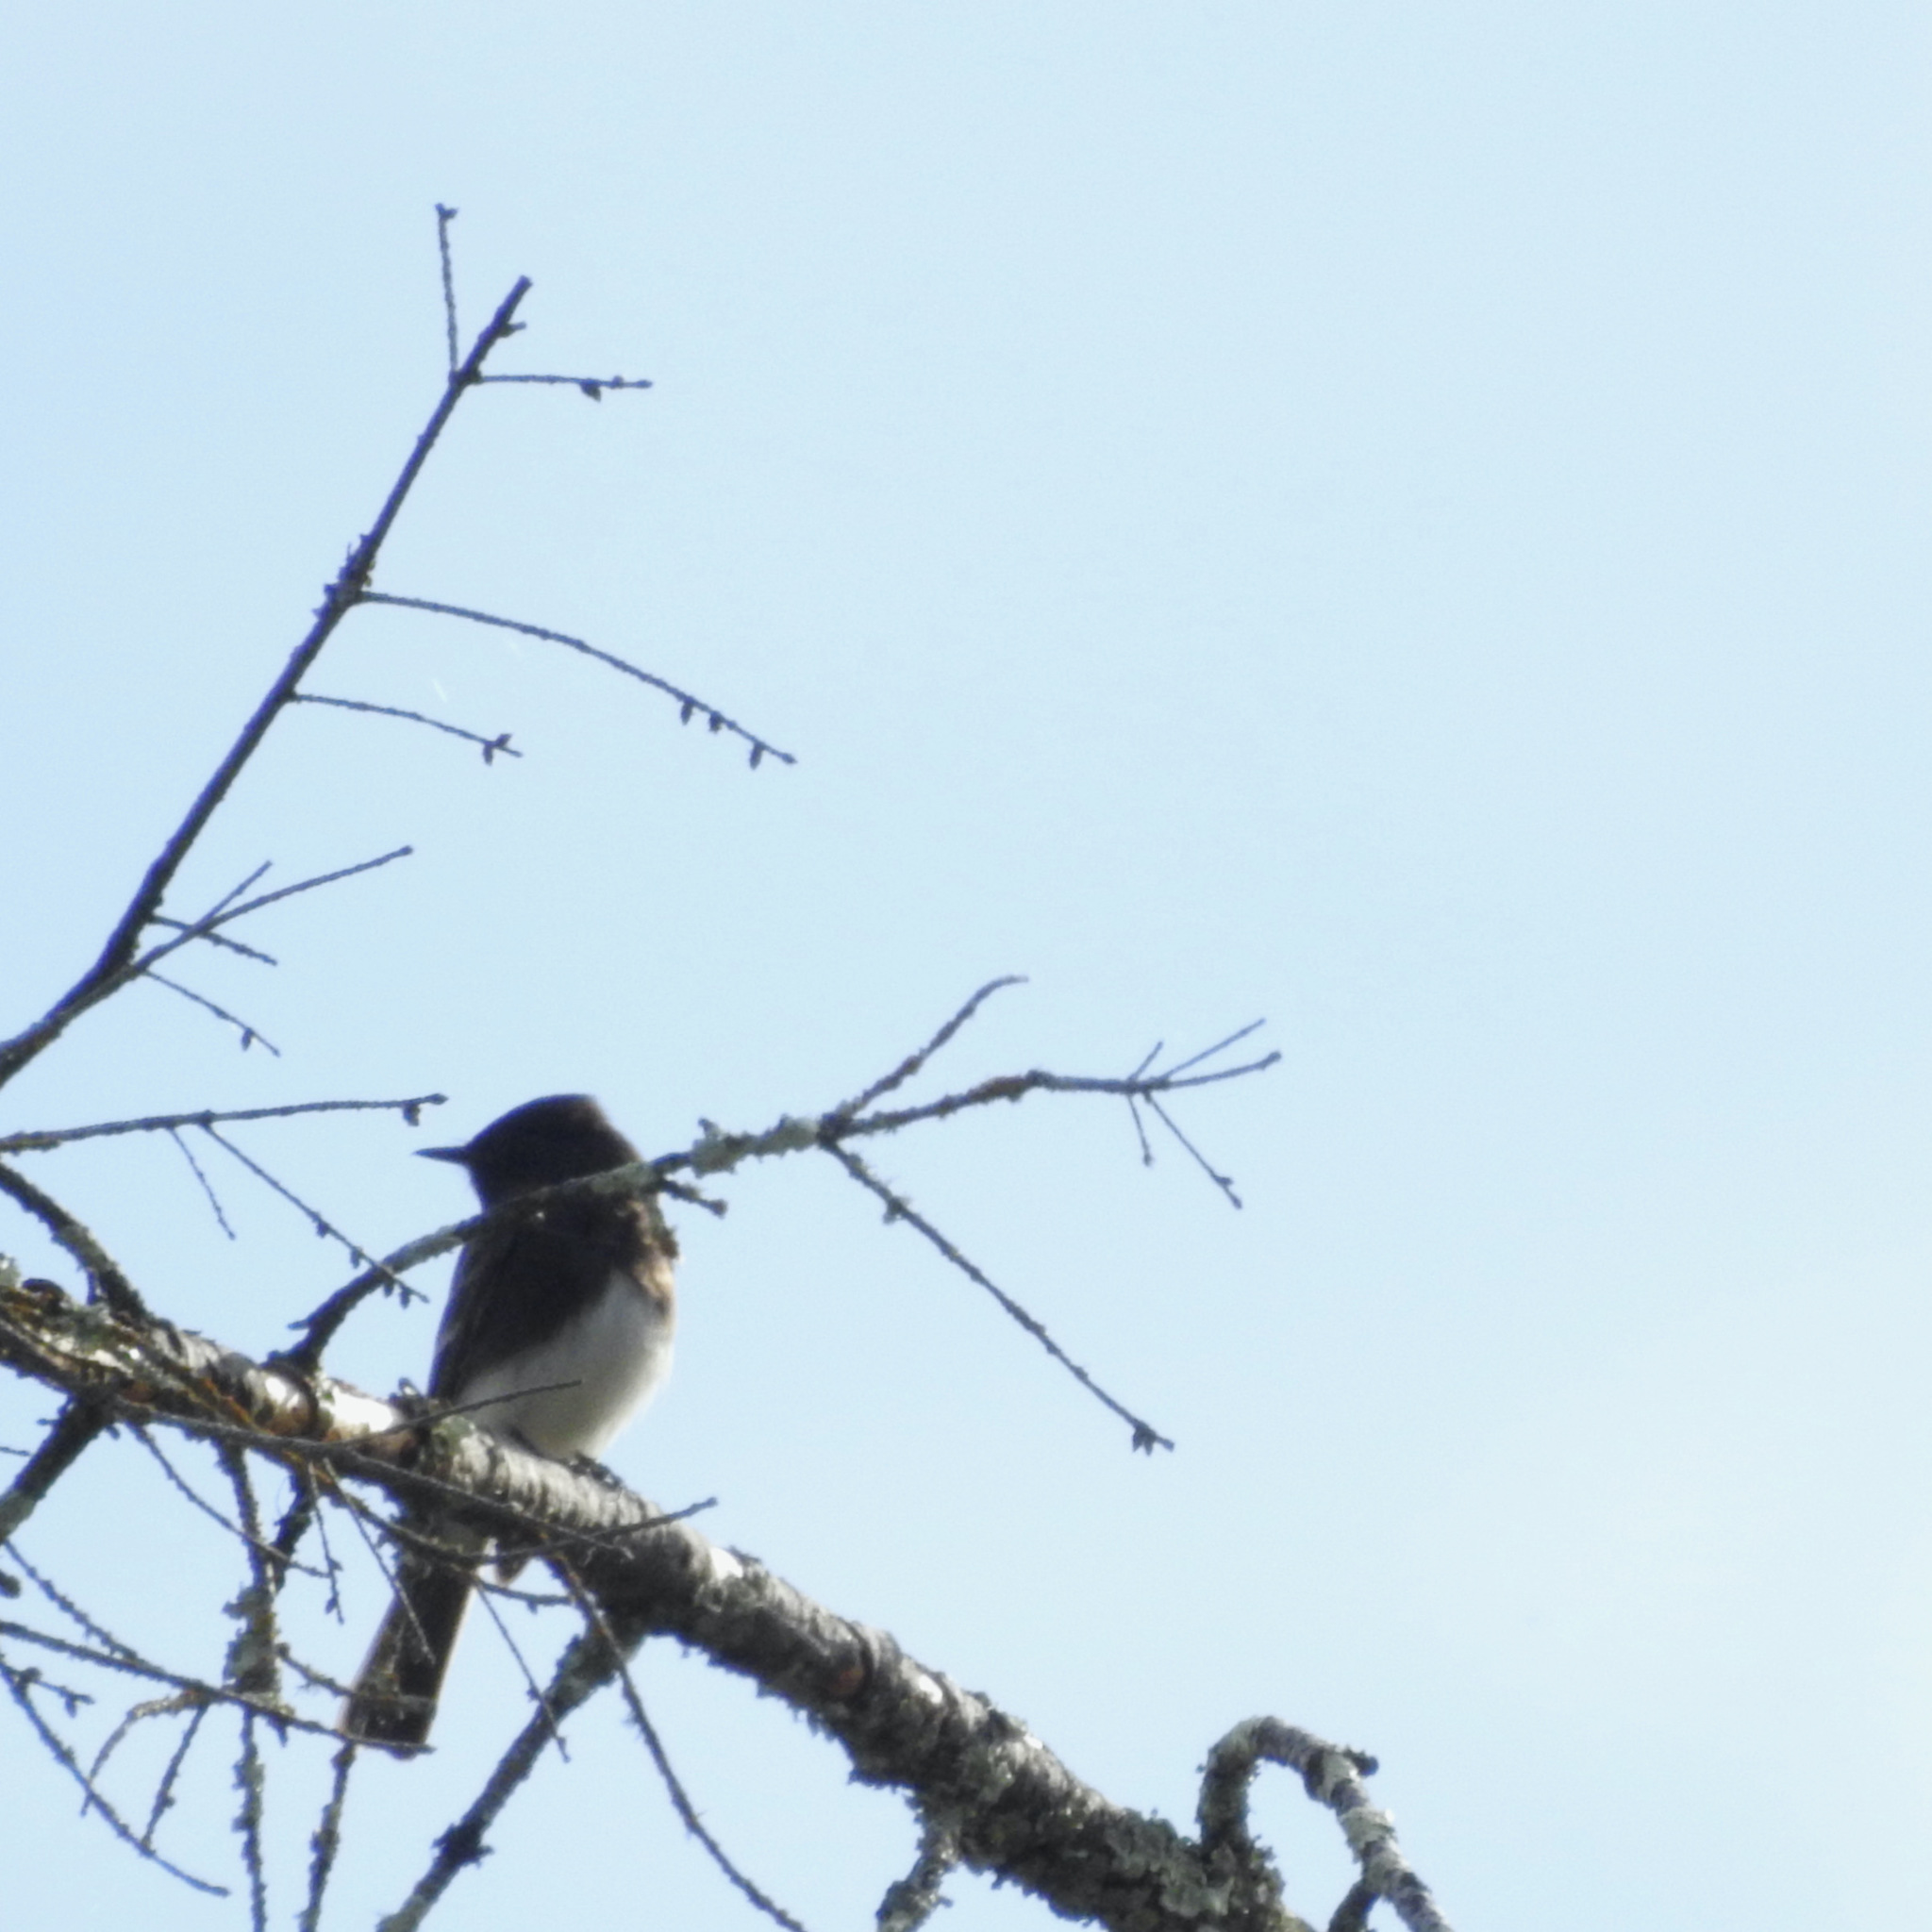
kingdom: Animalia
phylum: Chordata
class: Aves
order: Passeriformes
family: Tyrannidae
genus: Sayornis
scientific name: Sayornis nigricans
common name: Black phoebe
